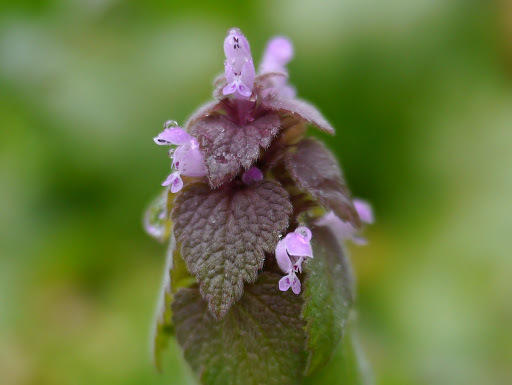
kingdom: Plantae
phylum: Tracheophyta
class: Magnoliopsida
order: Lamiales
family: Lamiaceae
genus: Lamium
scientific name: Lamium purpureum
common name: Red dead-nettle
